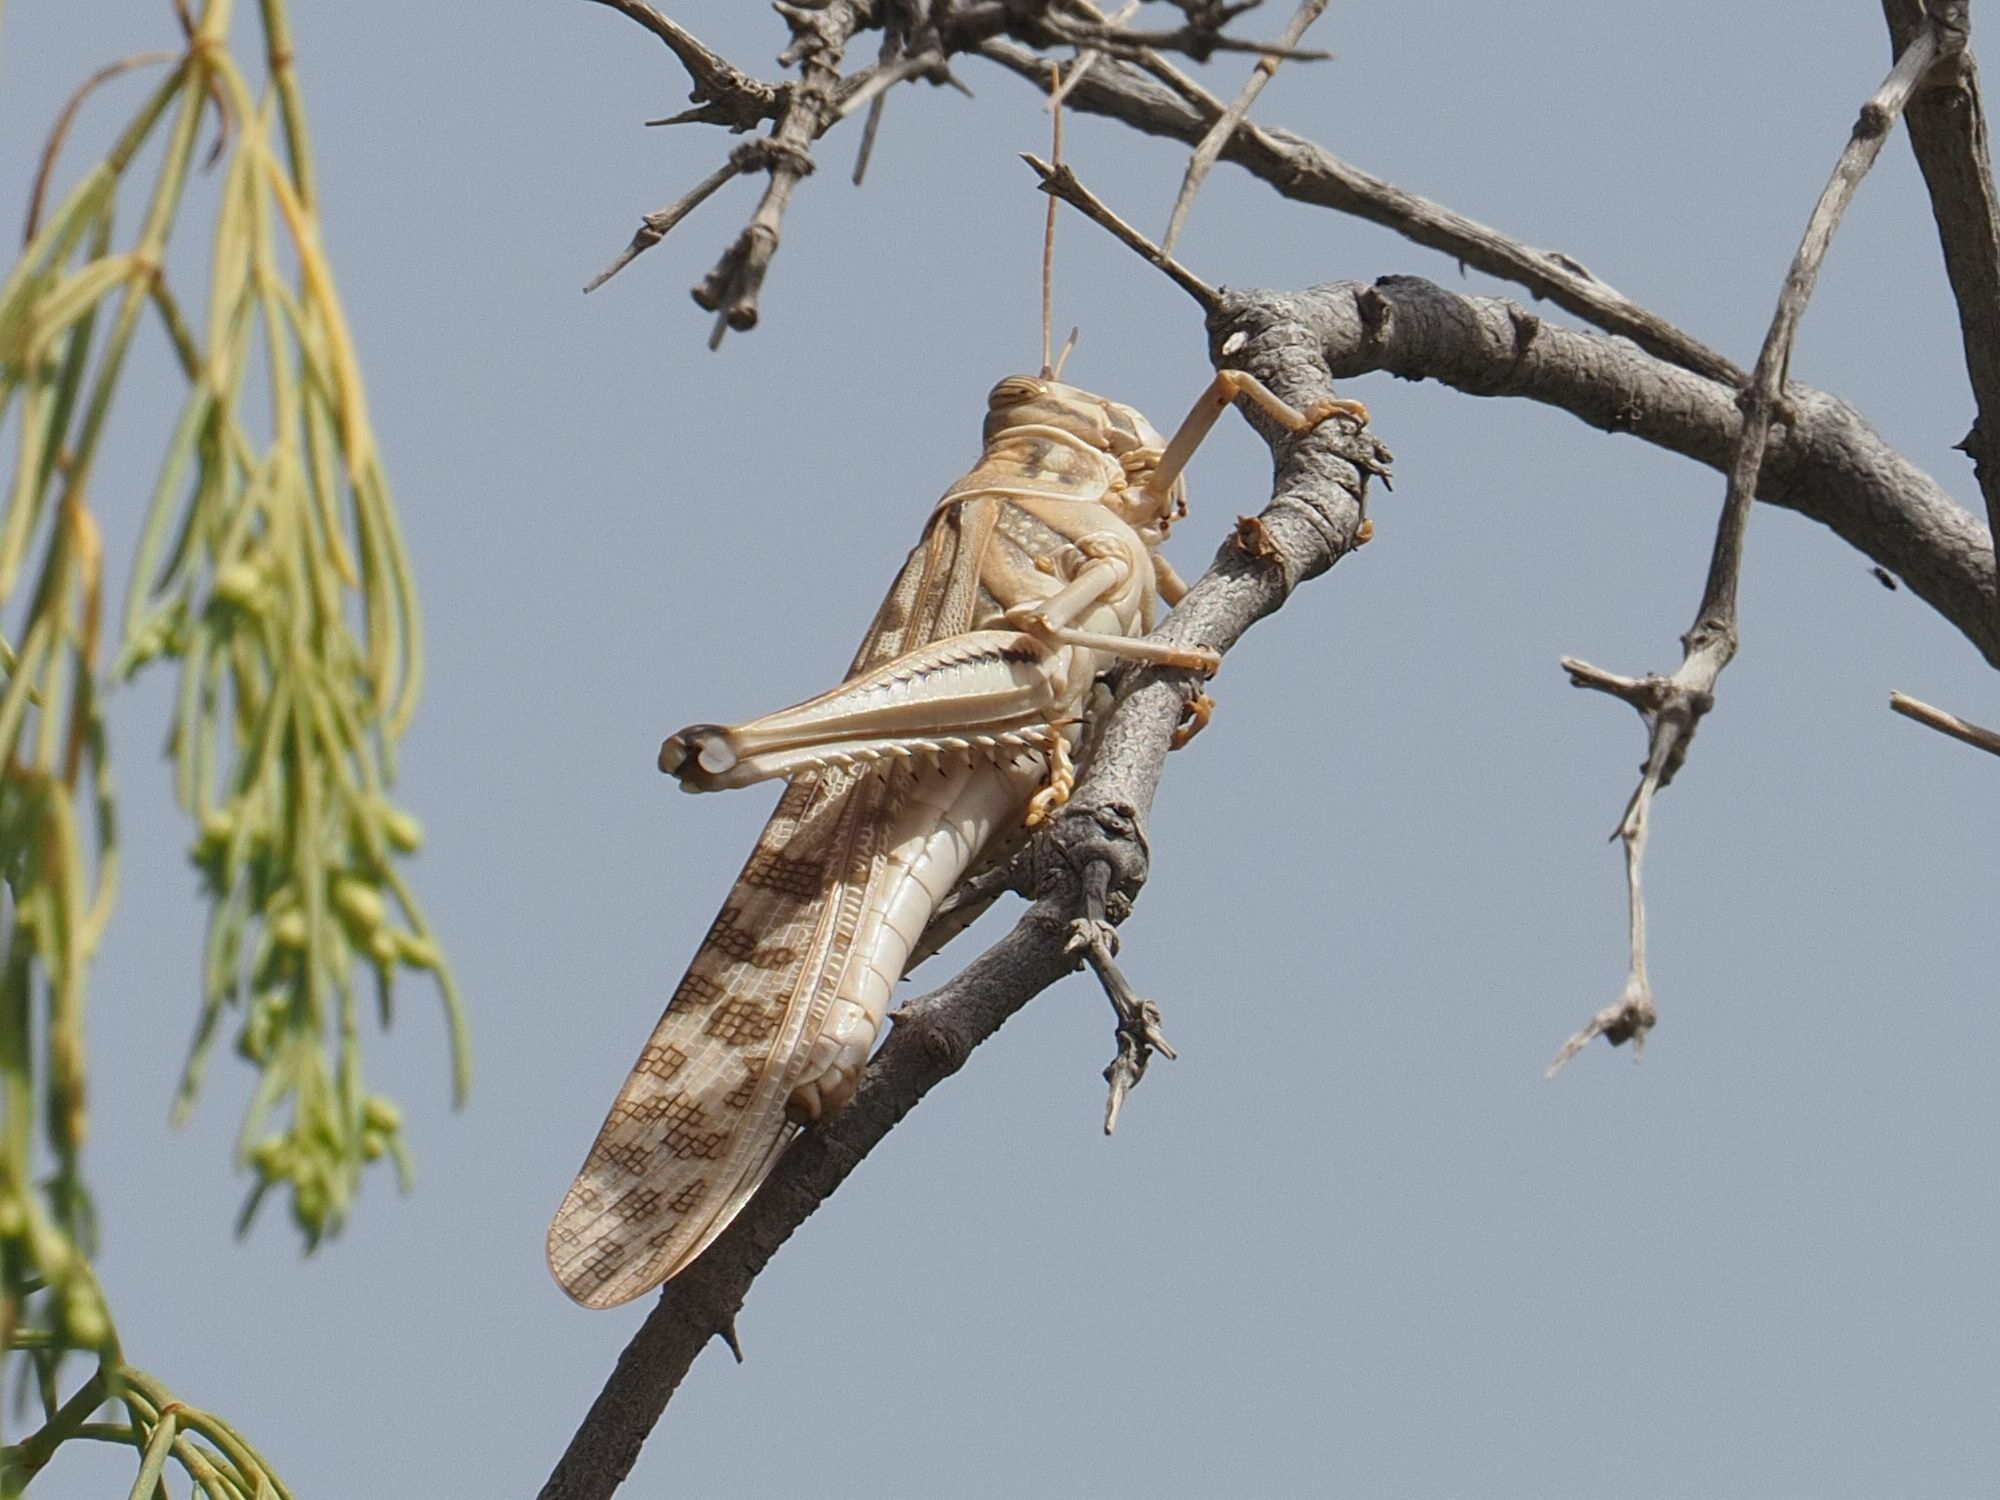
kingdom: Animalia
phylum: Arthropoda
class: Insecta
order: Orthoptera
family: Acrididae
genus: Schistocerca
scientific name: Schistocerca gregaria
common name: Desert locust
